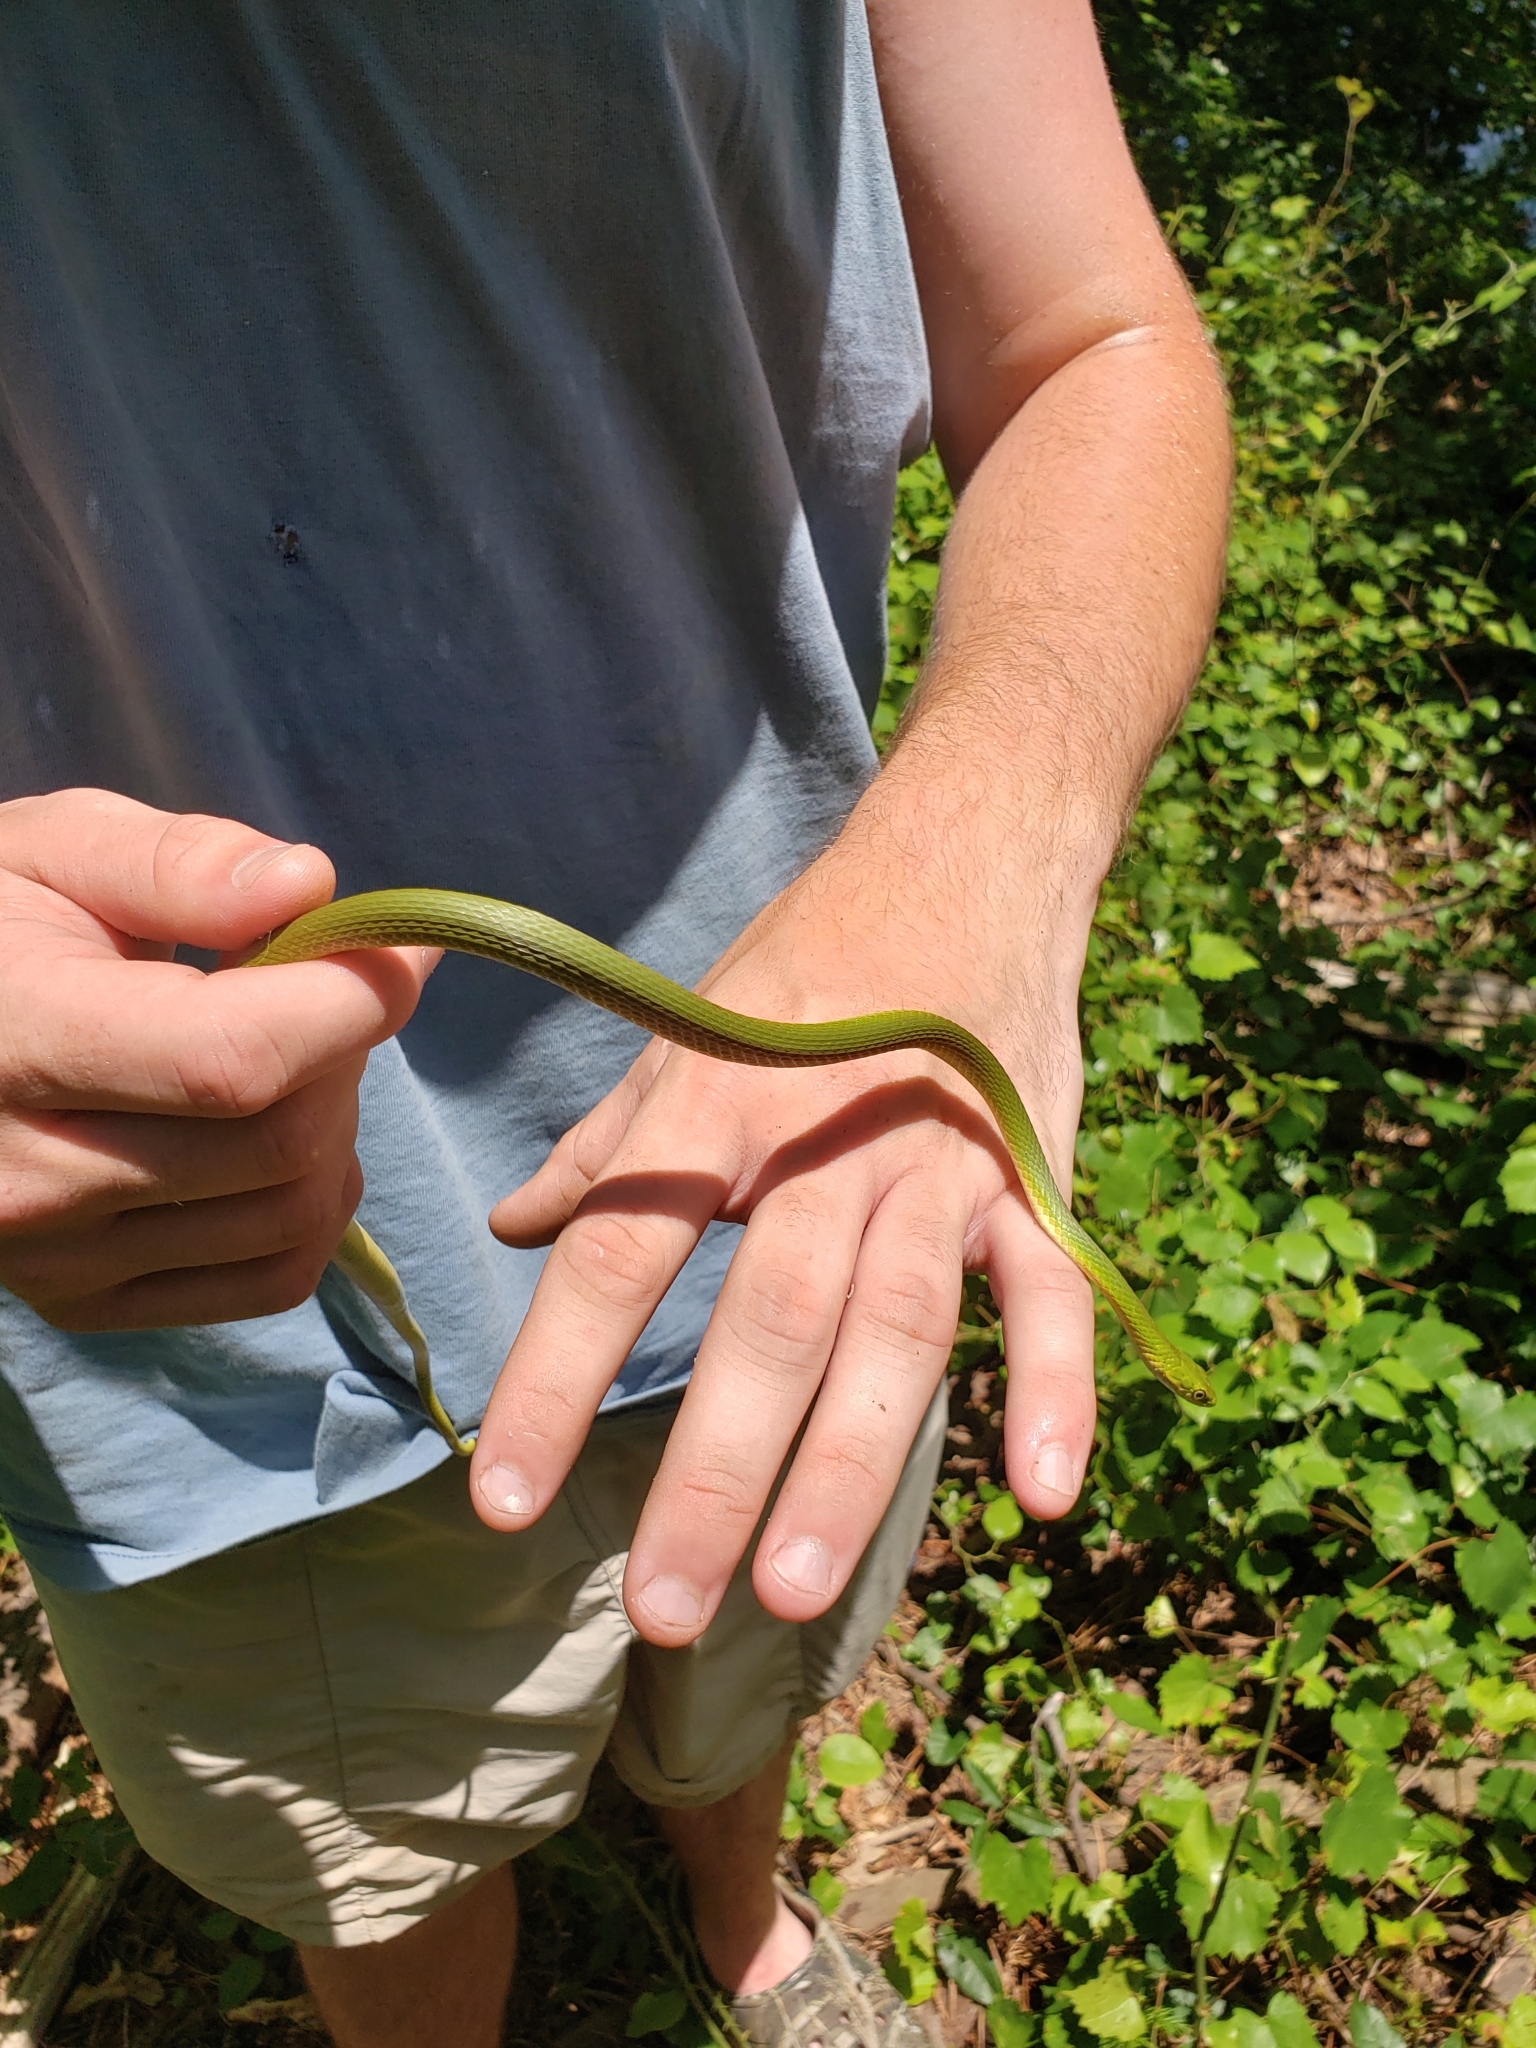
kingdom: Animalia
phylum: Chordata
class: Squamata
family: Colubridae
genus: Opheodrys
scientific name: Opheodrys aestivus
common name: Rough greensnake
